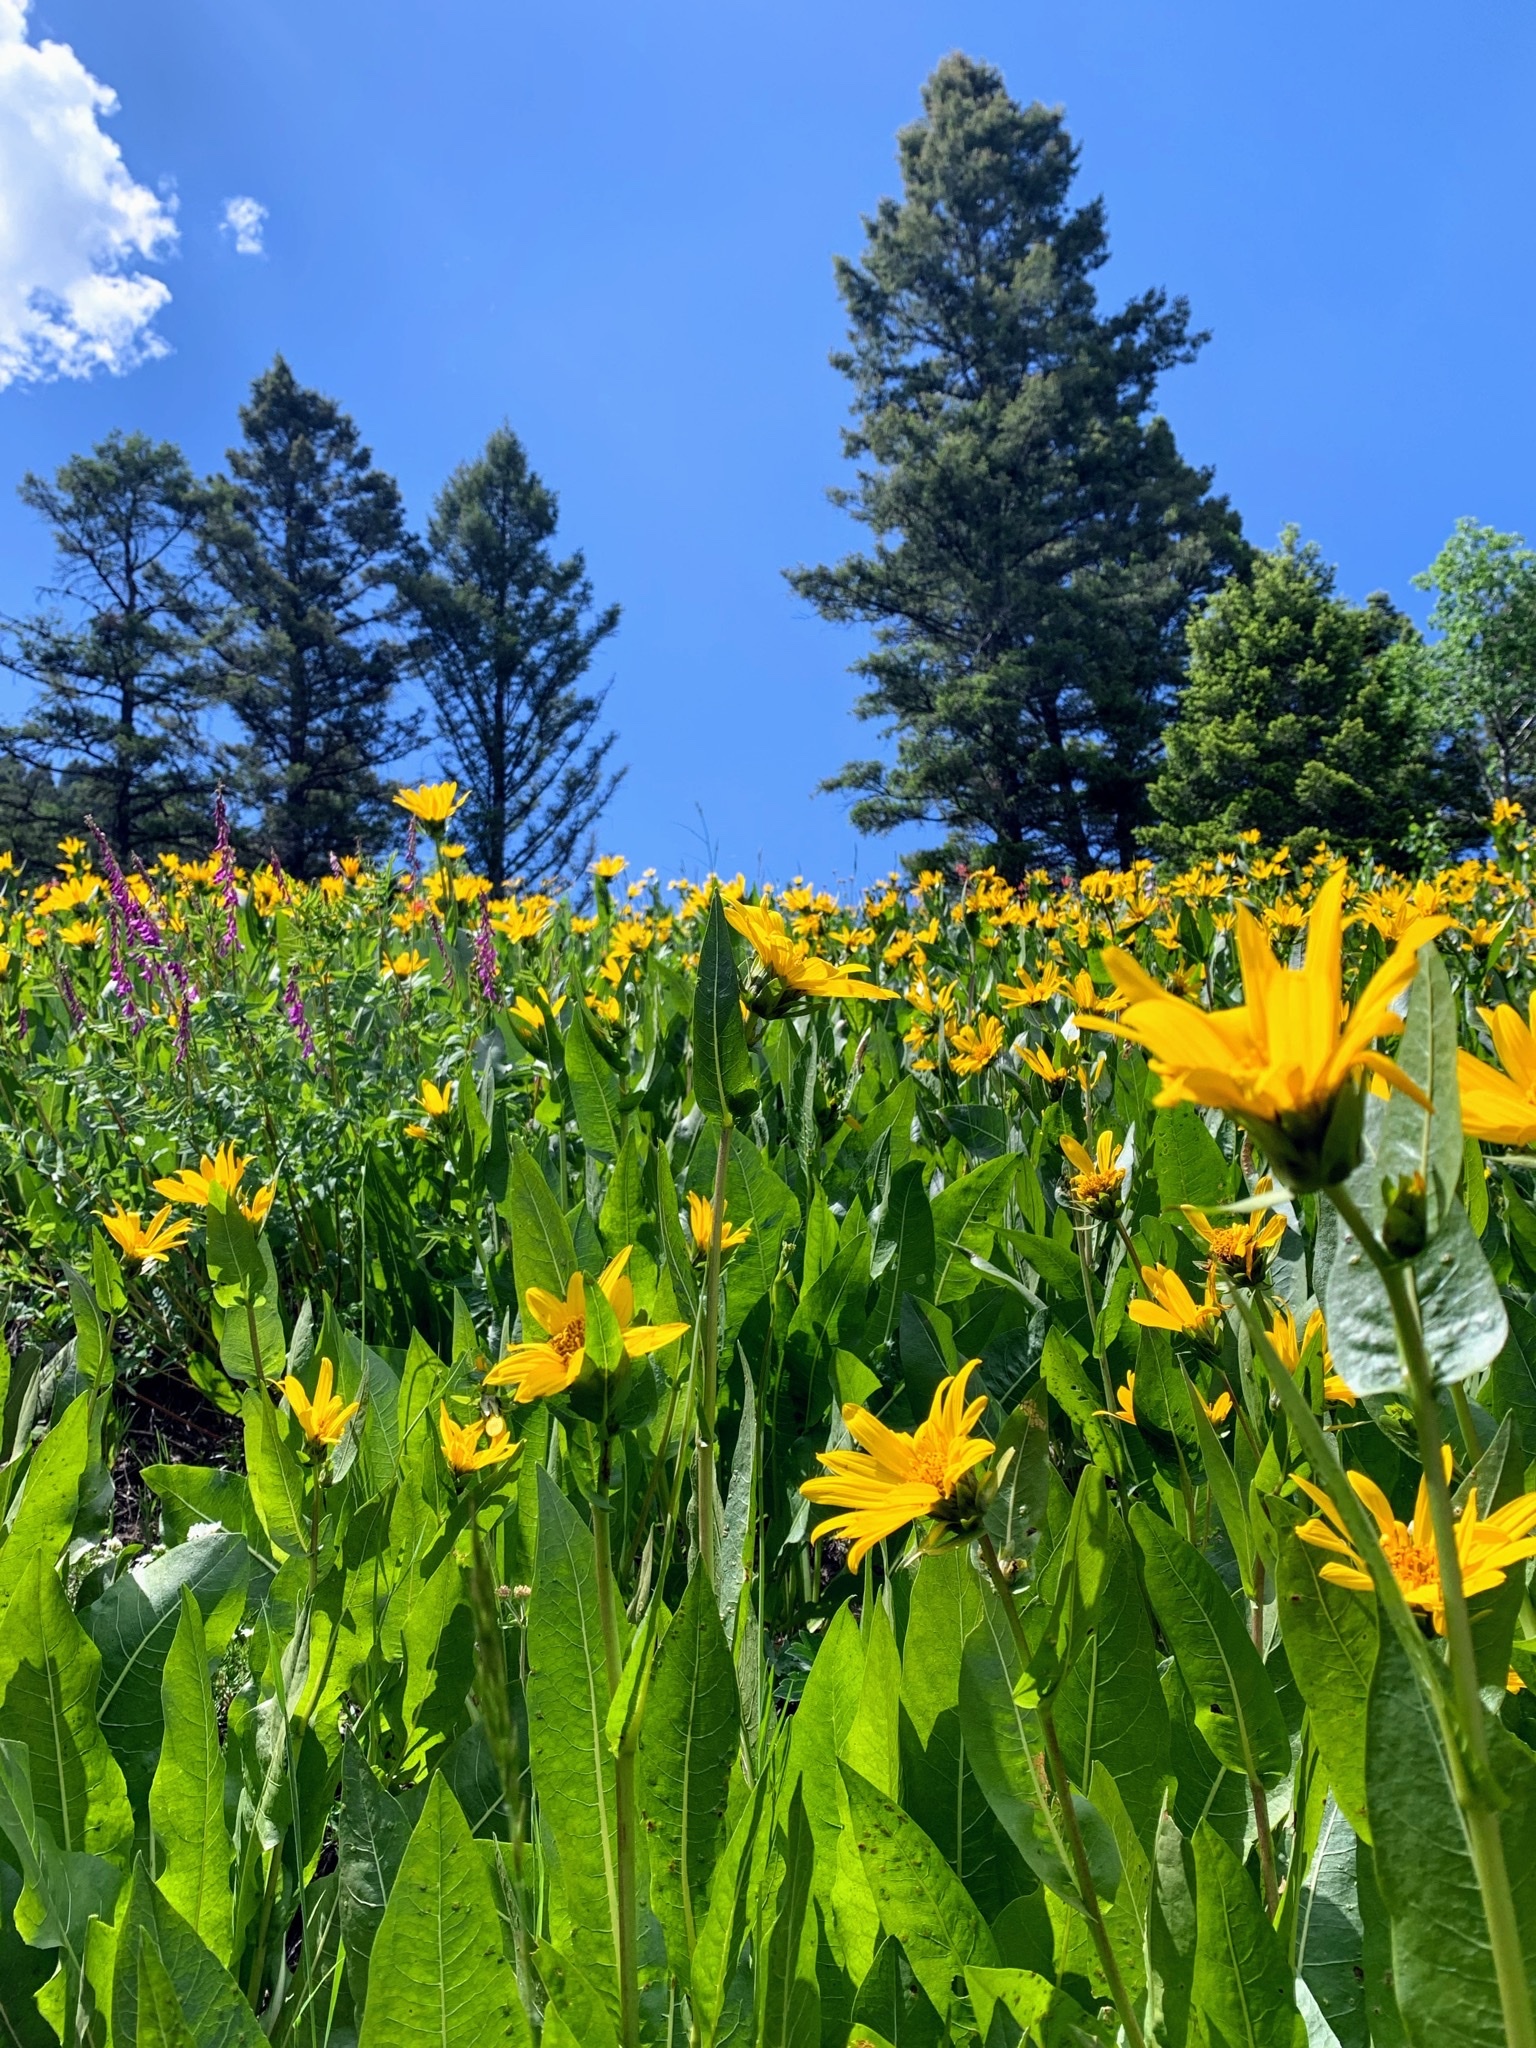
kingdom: Plantae
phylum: Tracheophyta
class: Magnoliopsida
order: Asterales
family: Asteraceae
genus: Wyethia
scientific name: Wyethia amplexicaulis
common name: Northern mule's-ears
